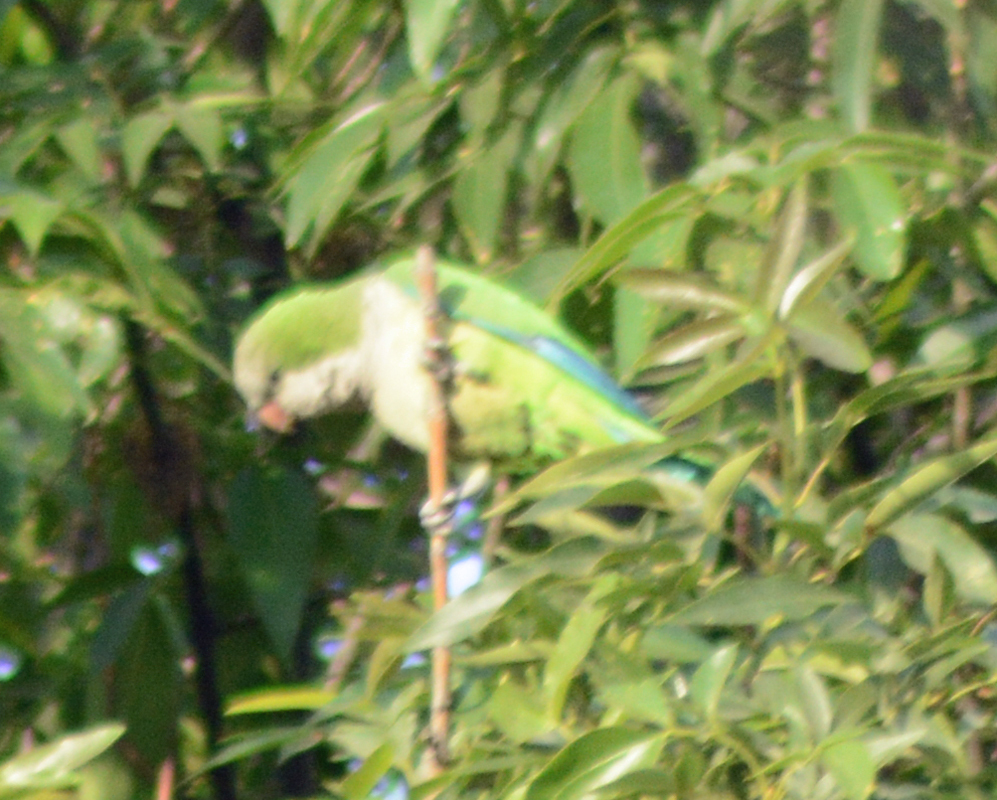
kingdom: Animalia
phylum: Chordata
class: Aves
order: Psittaciformes
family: Psittacidae
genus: Myiopsitta
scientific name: Myiopsitta monachus
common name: Monk parakeet
